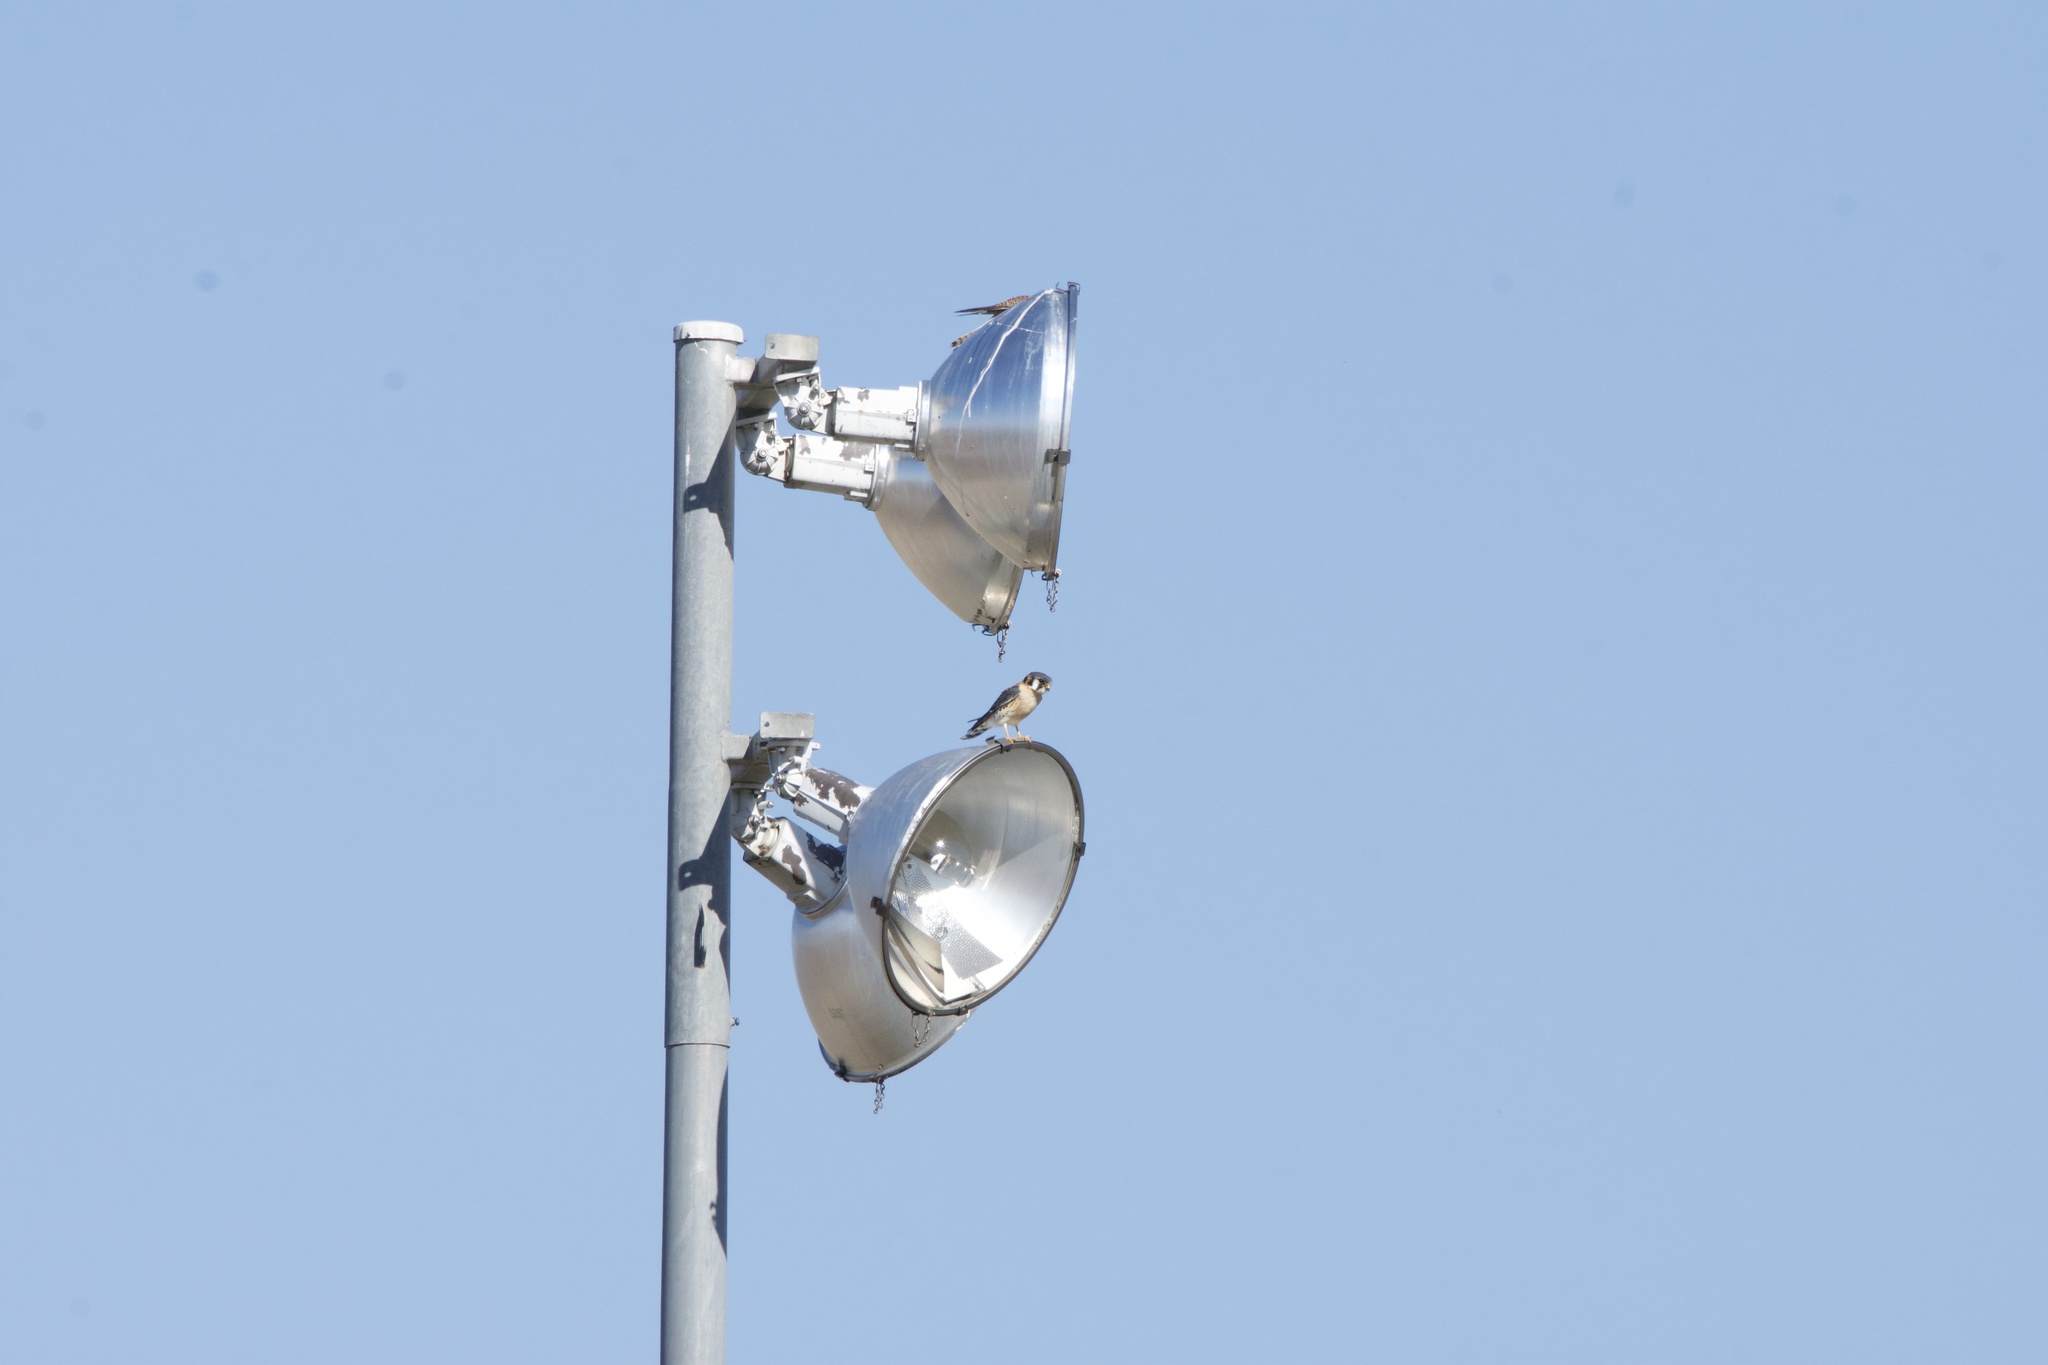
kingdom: Animalia
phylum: Chordata
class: Aves
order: Falconiformes
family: Falconidae
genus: Falco
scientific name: Falco sparverius
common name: American kestrel
